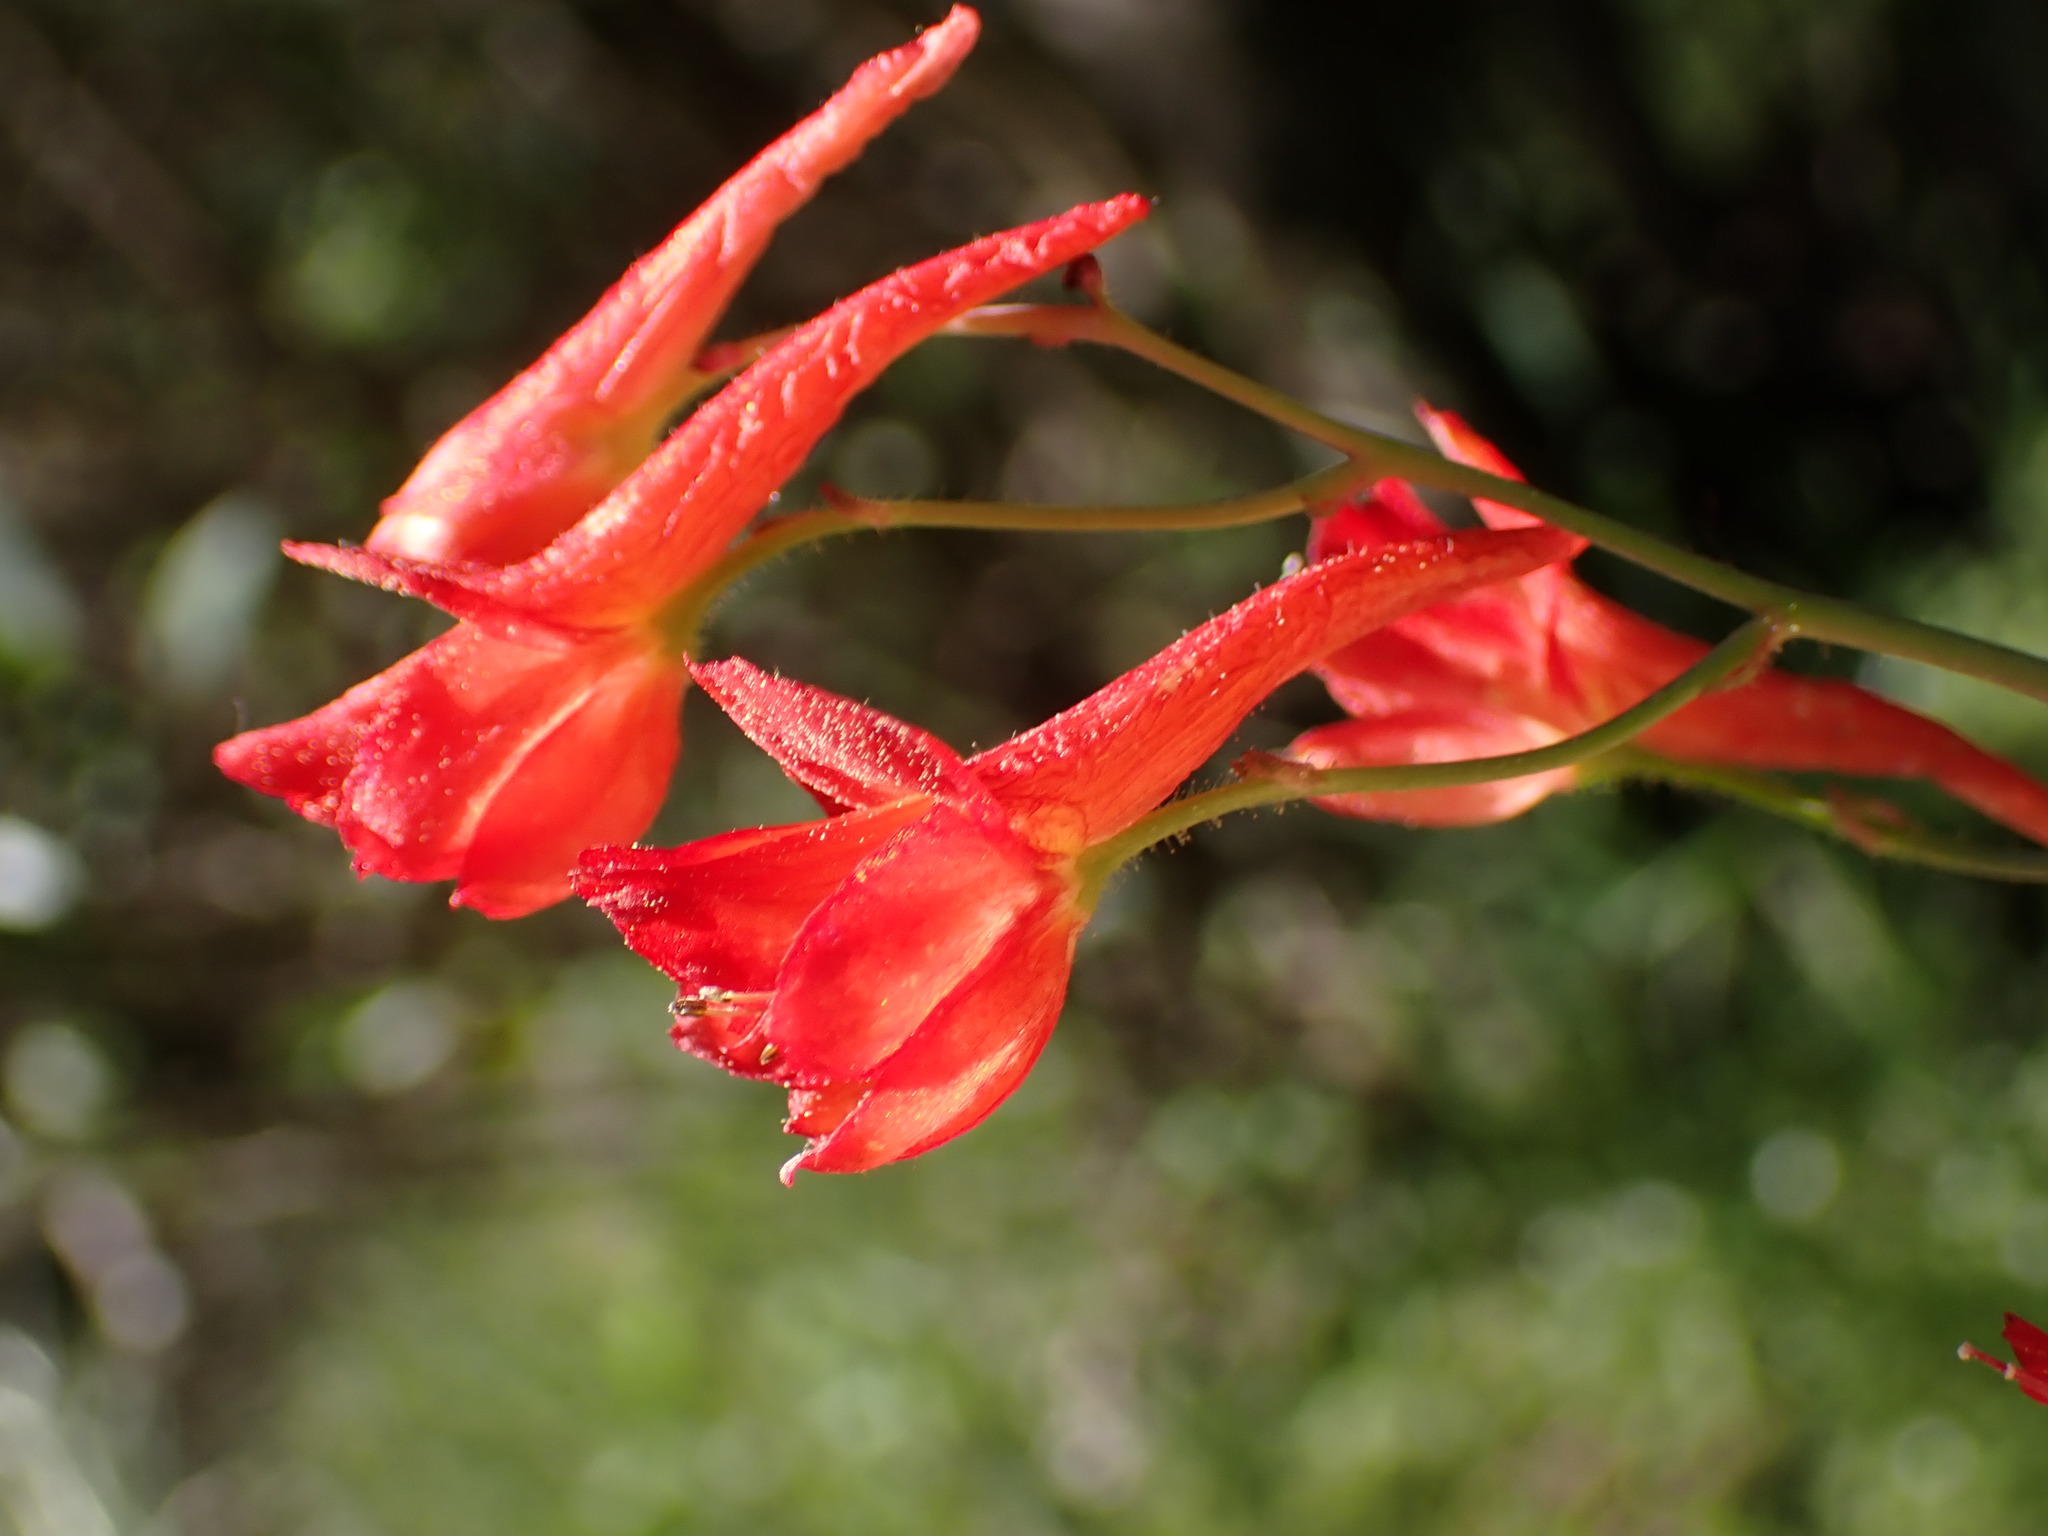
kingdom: Plantae
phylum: Tracheophyta
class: Magnoliopsida
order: Ranunculales
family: Ranunculaceae
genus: Delphinium
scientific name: Delphinium nudicaule
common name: Red larkspur
